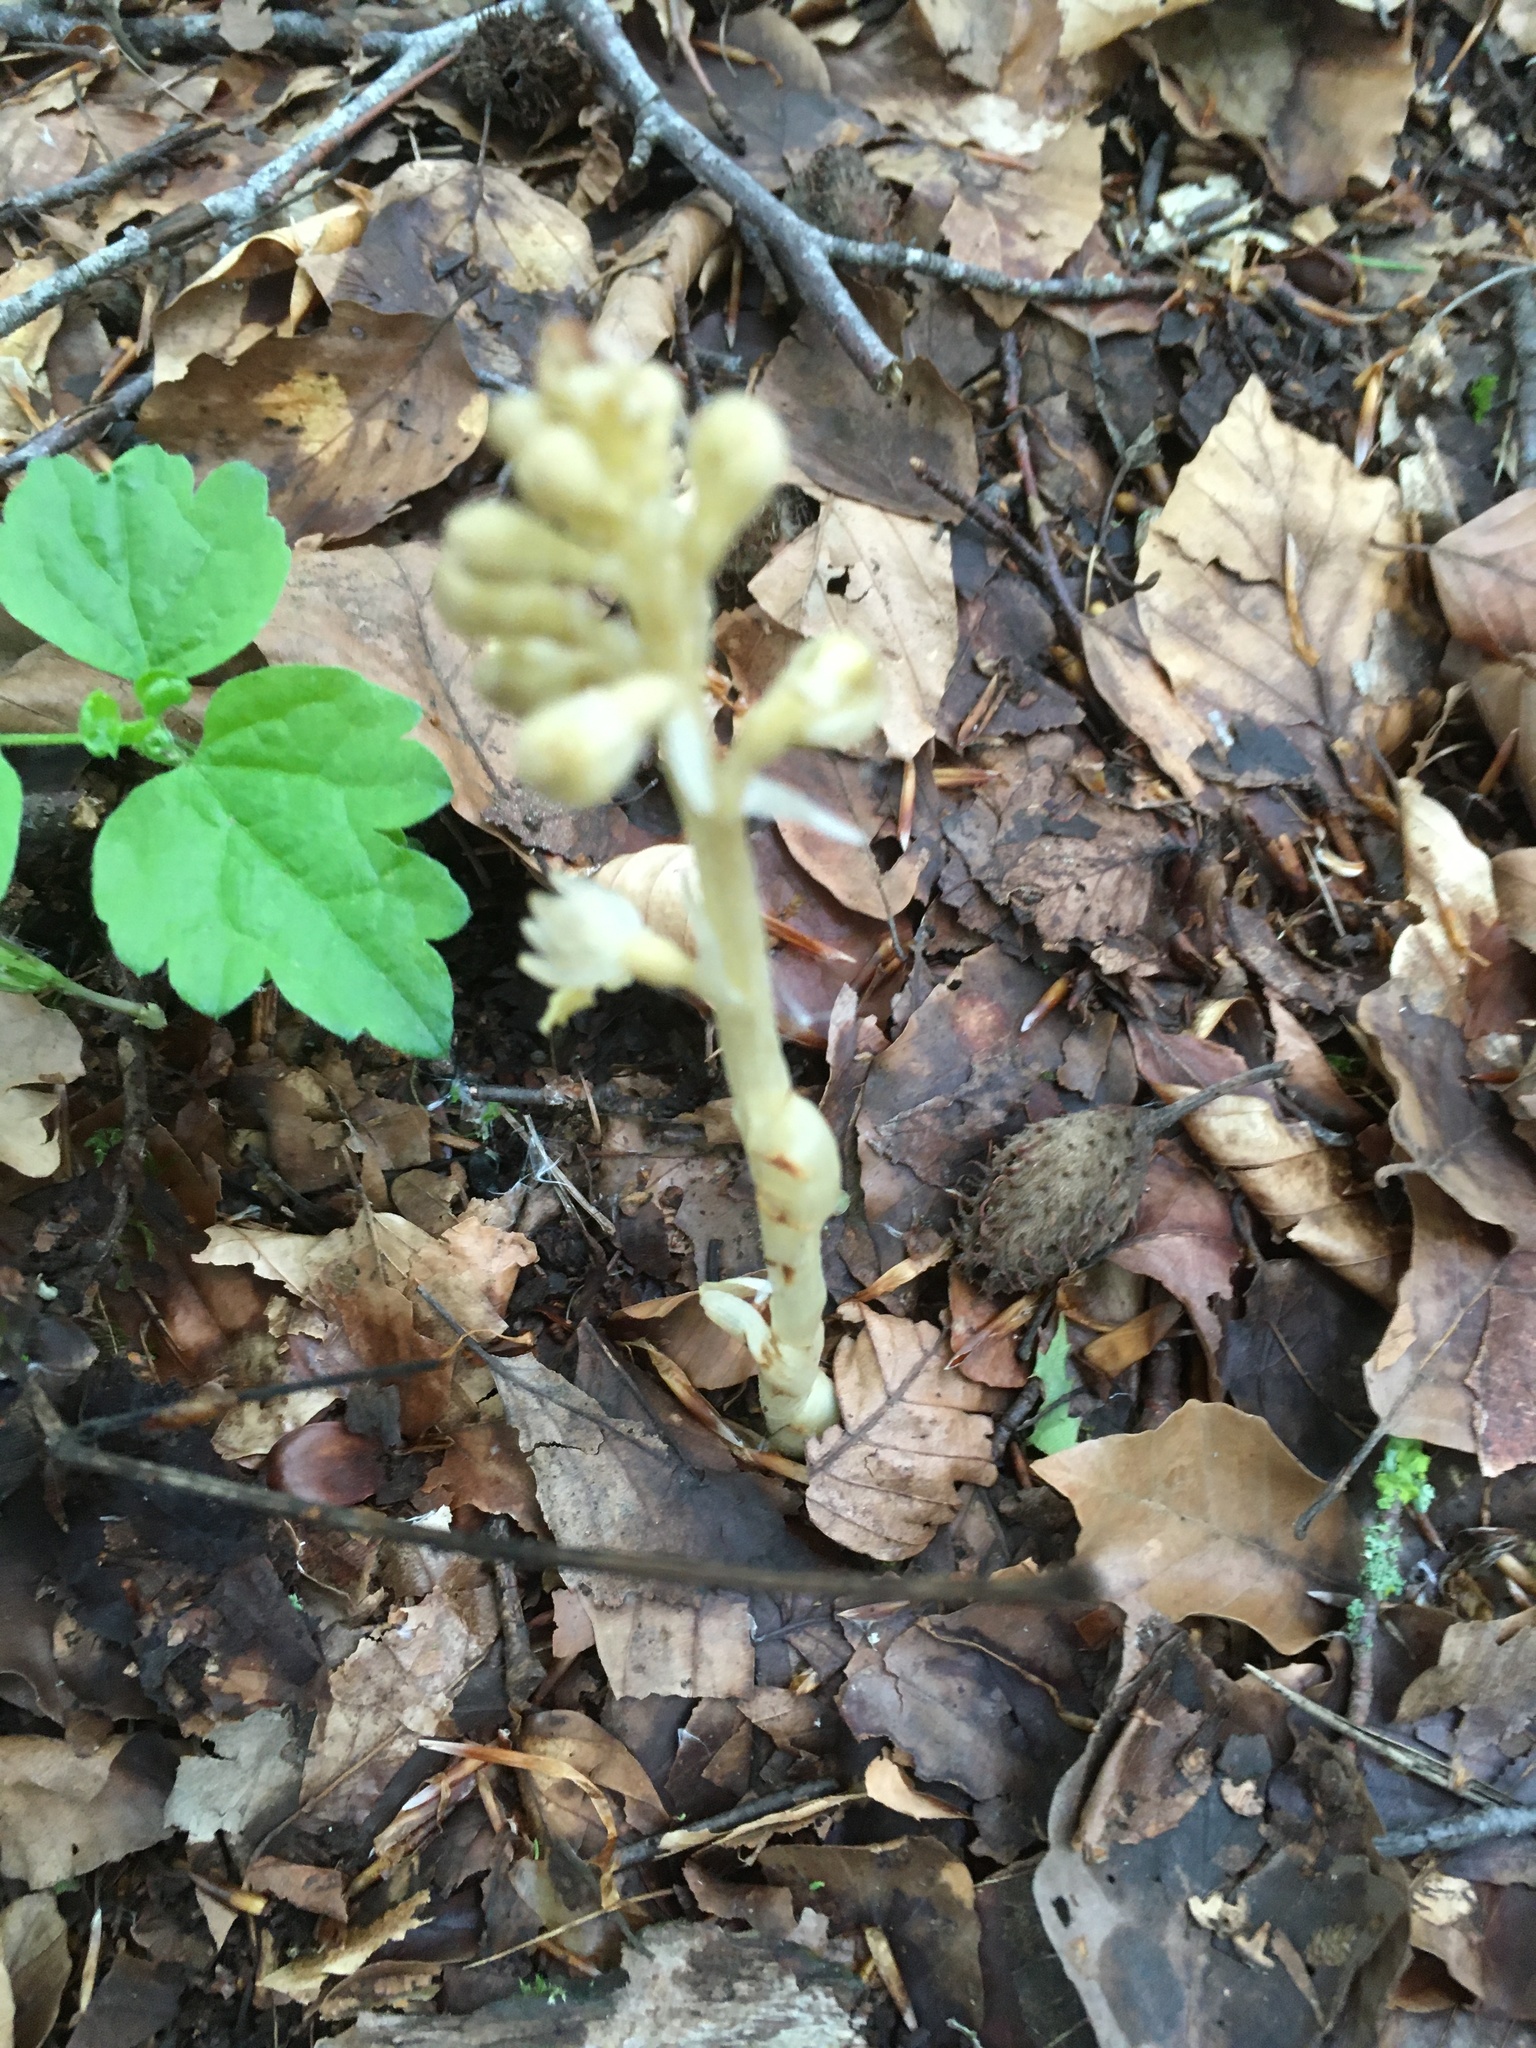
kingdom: Plantae
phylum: Tracheophyta
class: Liliopsida
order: Asparagales
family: Orchidaceae
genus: Neottia
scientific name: Neottia nidus-avis
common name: Bird's-nest orchid
